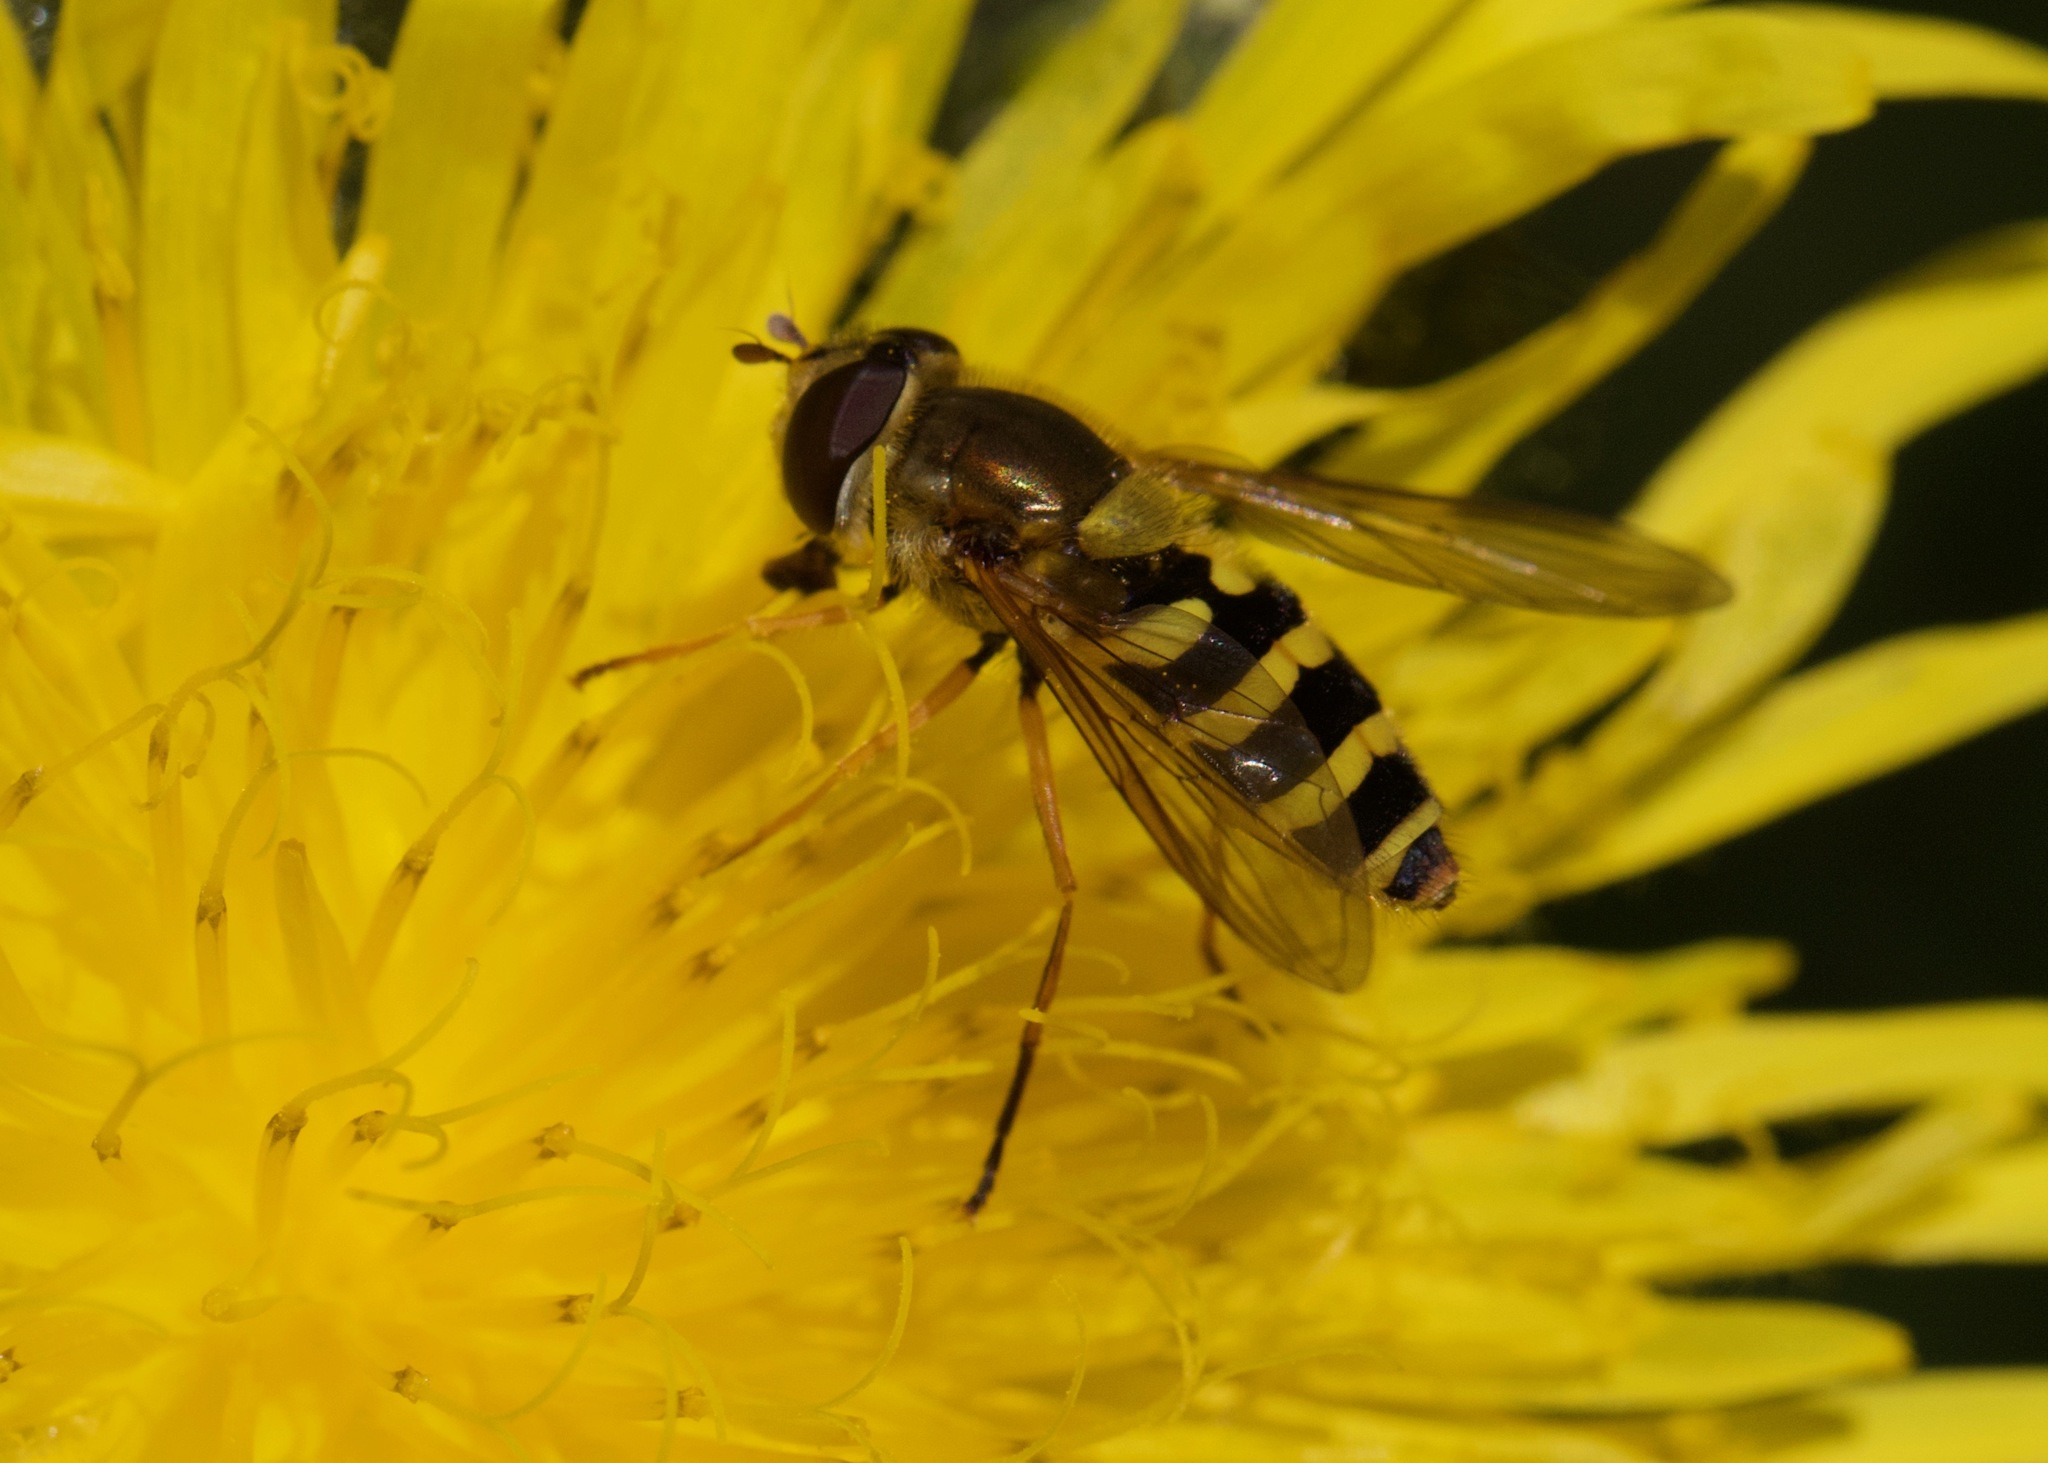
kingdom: Animalia
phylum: Arthropoda
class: Insecta
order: Diptera
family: Syrphidae
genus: Syrphus
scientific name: Syrphus ribesii
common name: Common flower fly
